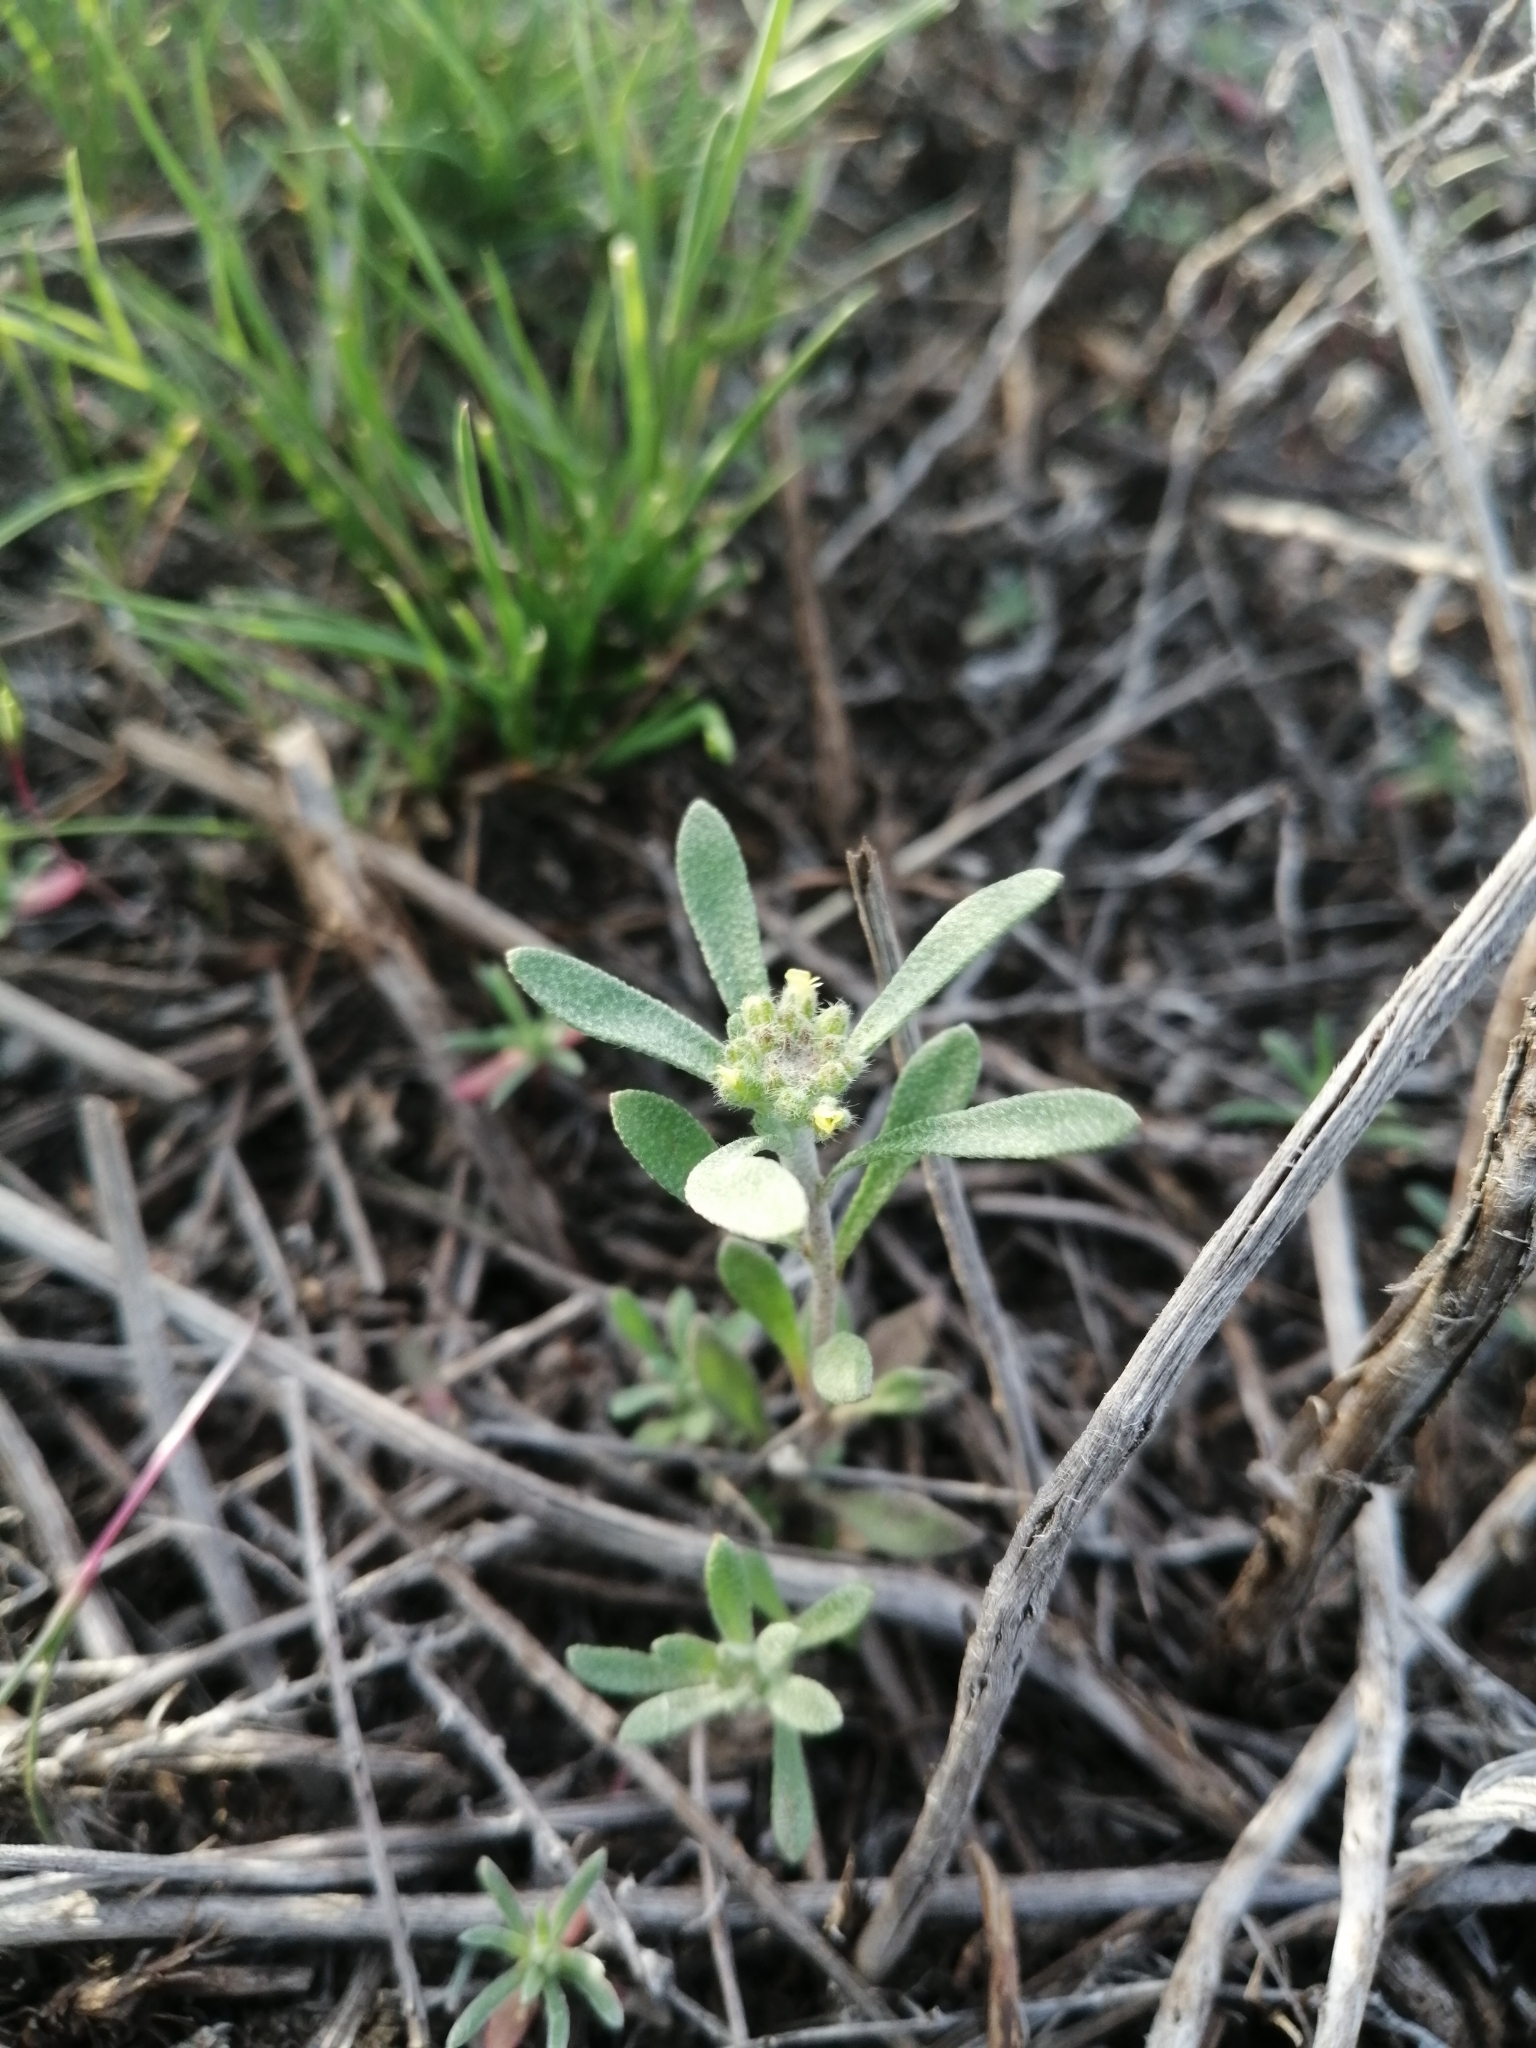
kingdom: Plantae
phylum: Tracheophyta
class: Magnoliopsida
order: Brassicales
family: Brassicaceae
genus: Alyssum
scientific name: Alyssum turkestanicum
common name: Desert alyssum
